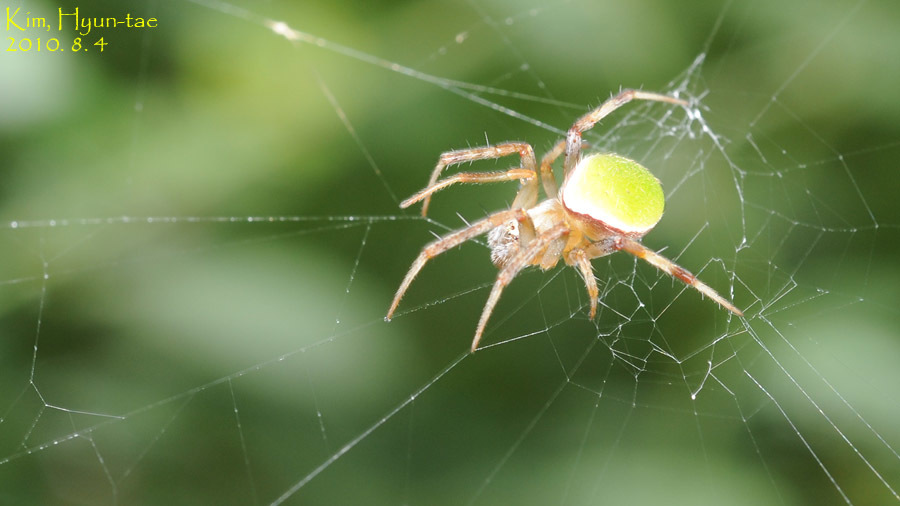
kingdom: Animalia
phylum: Arthropoda
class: Arachnida
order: Araneae
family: Araneidae
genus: Neoscona
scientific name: Neoscona mellotteei
